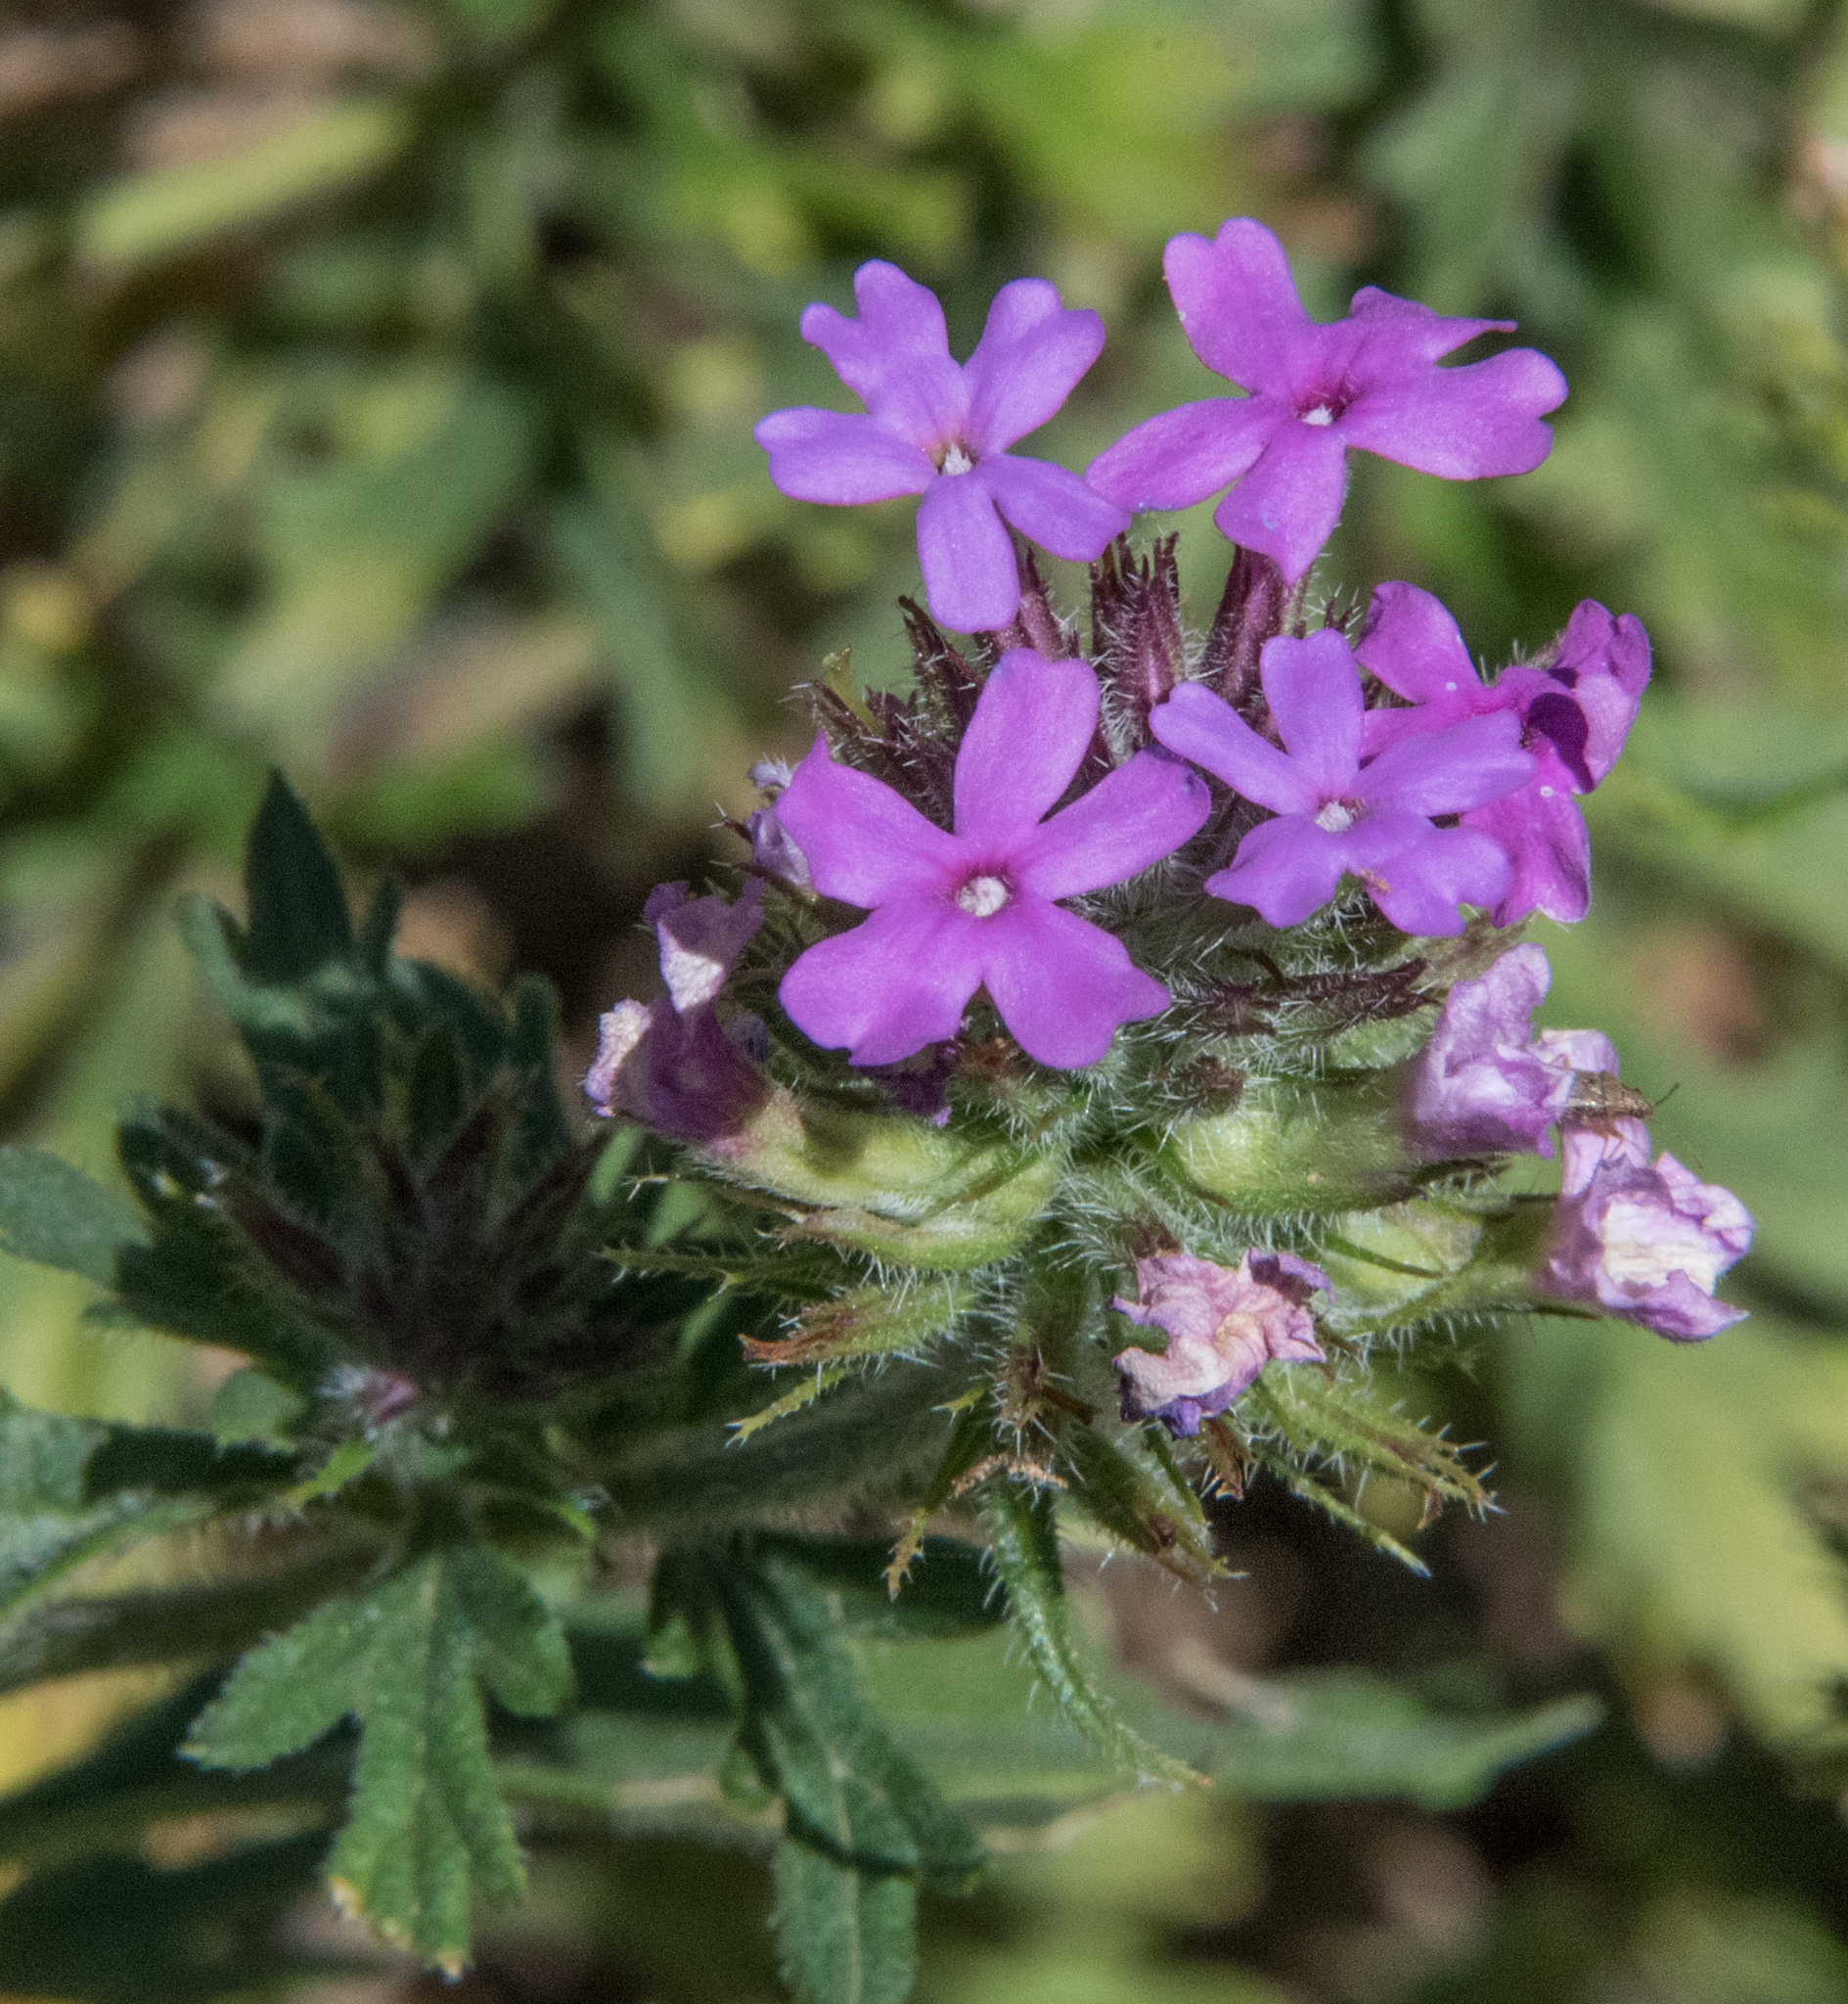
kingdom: Plantae
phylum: Tracheophyta
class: Magnoliopsida
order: Lamiales
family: Verbenaceae
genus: Verbena
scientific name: Verbena chiricahensis
